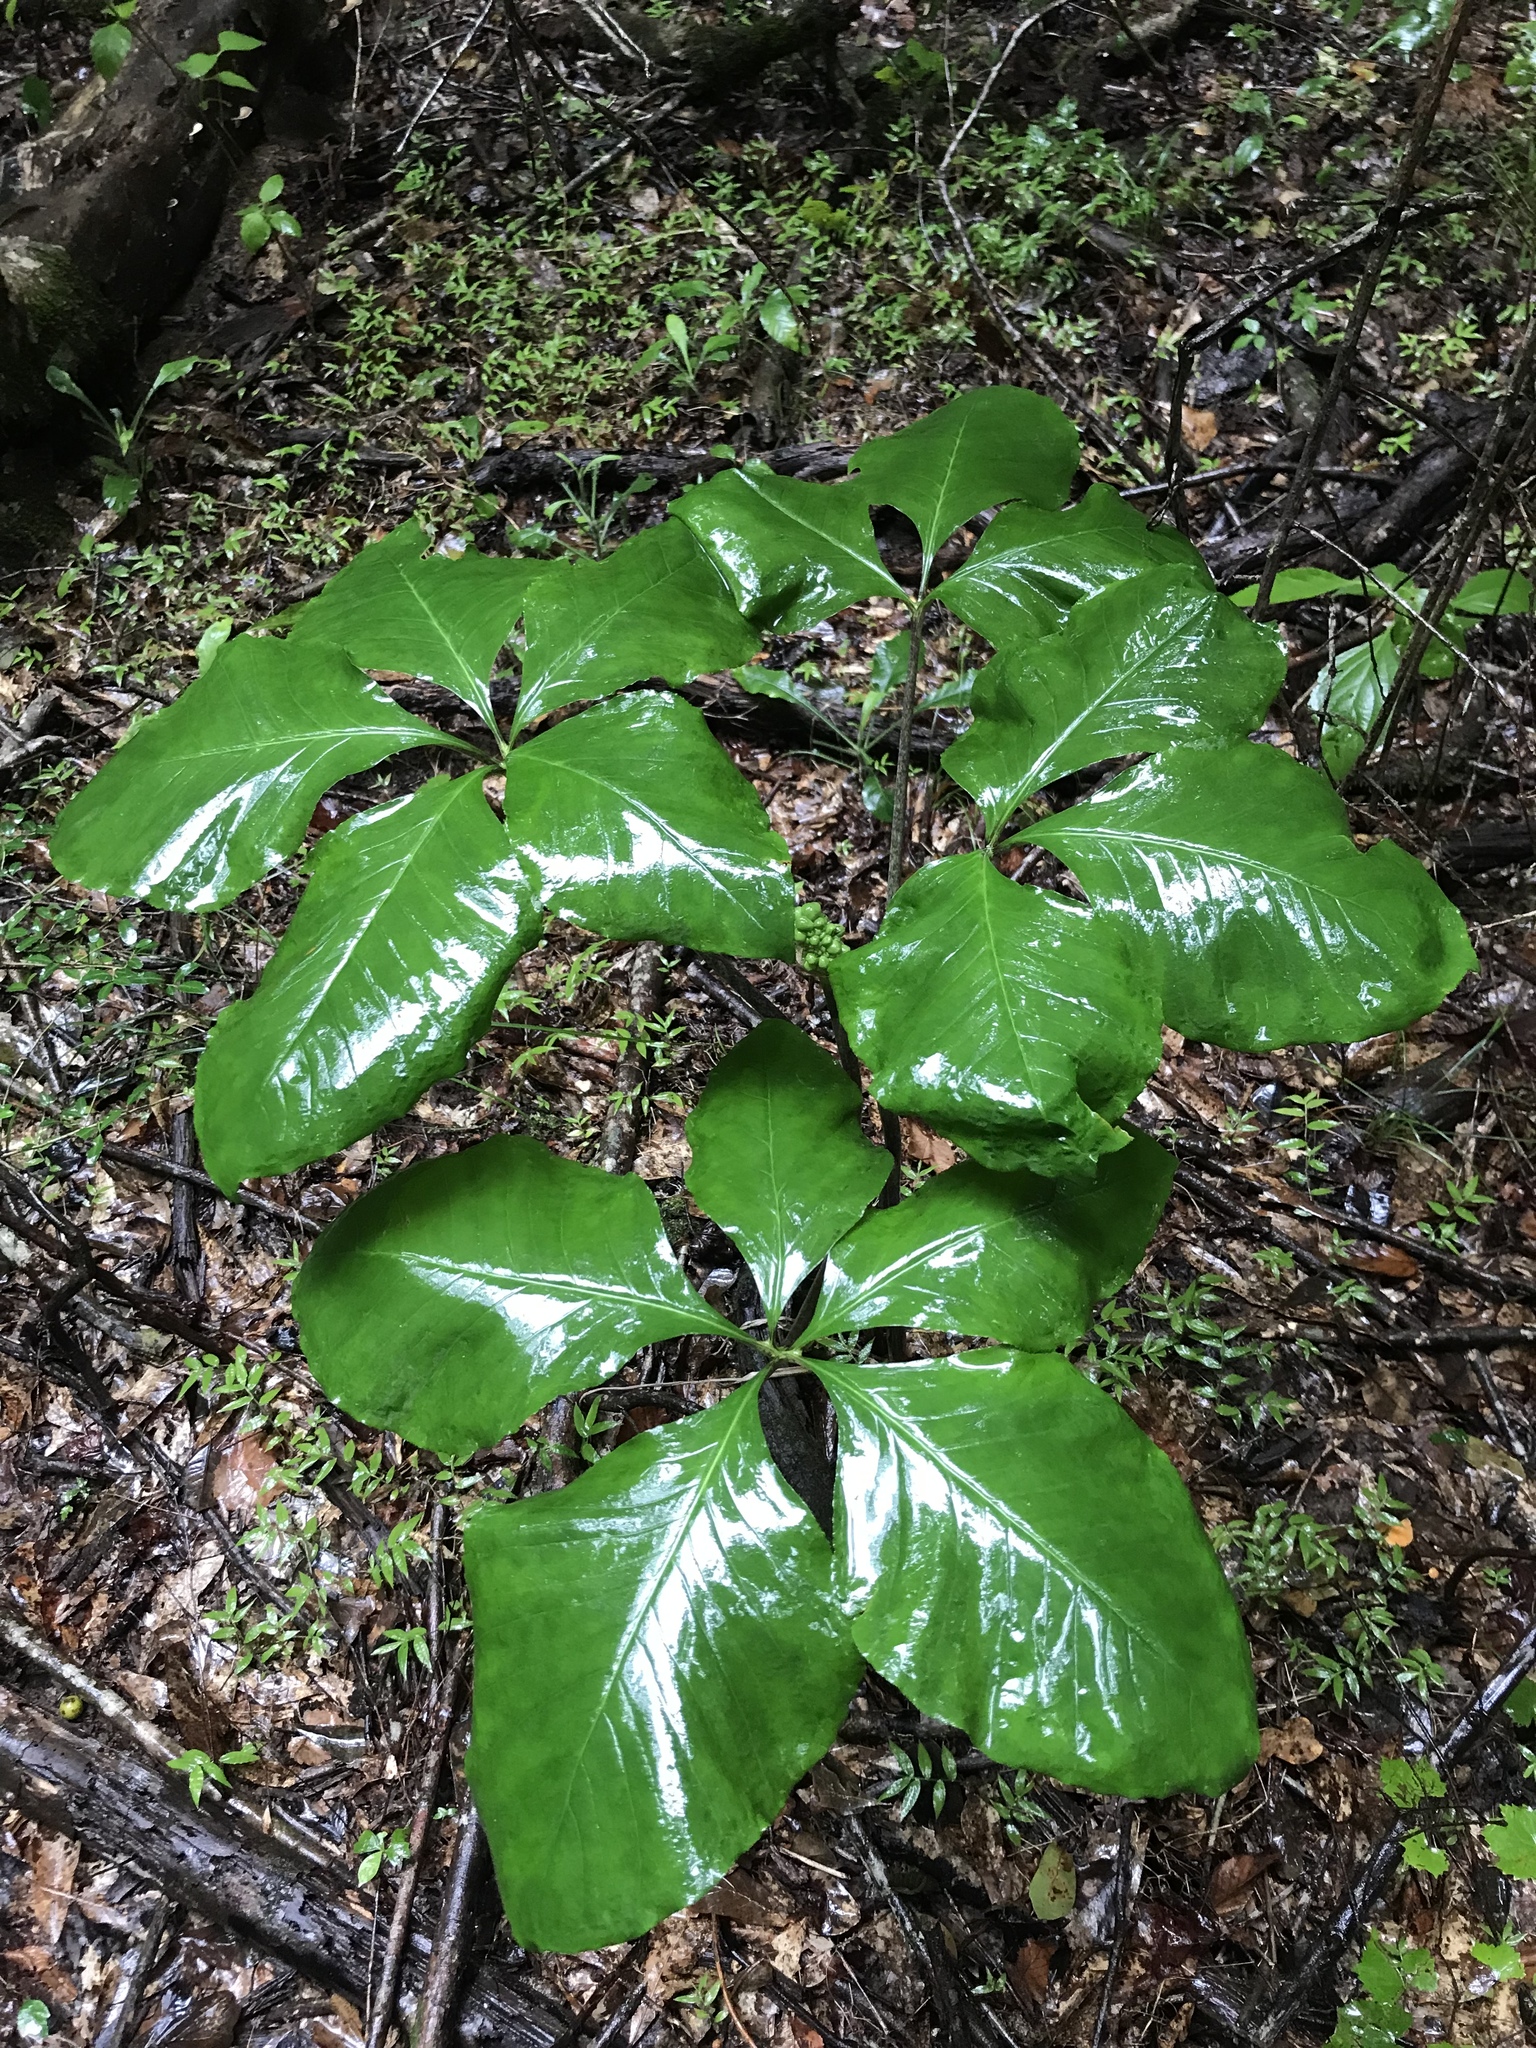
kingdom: Plantae
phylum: Tracheophyta
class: Liliopsida
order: Alismatales
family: Araceae
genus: Arisaema
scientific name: Arisaema quinatum
